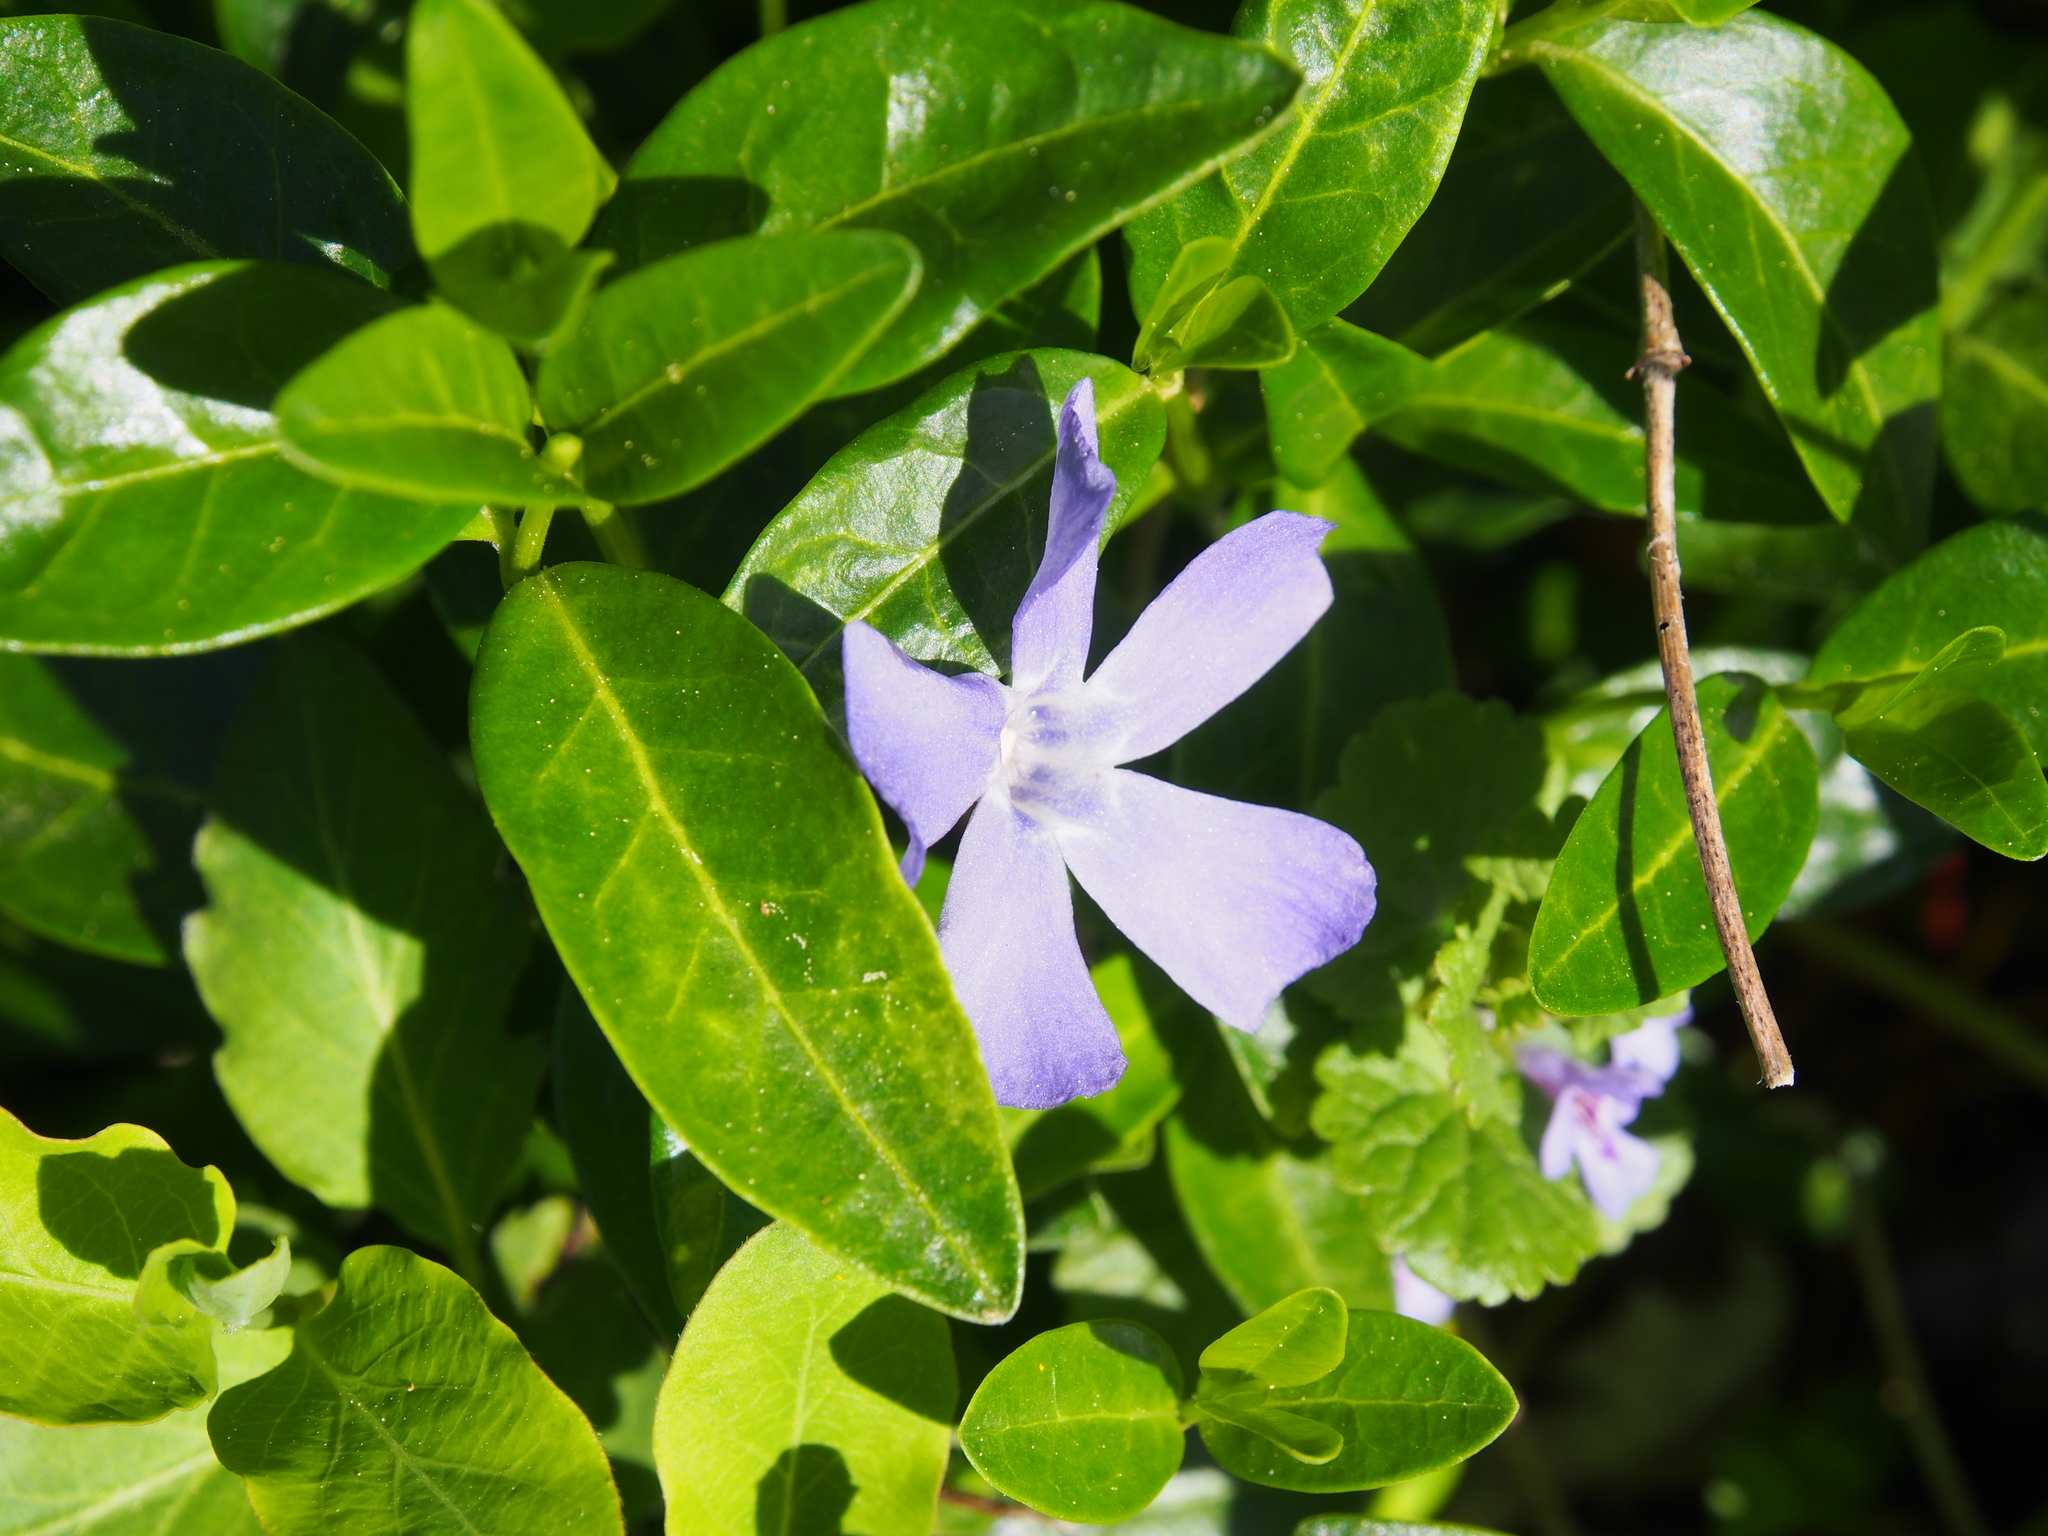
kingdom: Plantae
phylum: Tracheophyta
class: Magnoliopsida
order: Gentianales
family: Apocynaceae
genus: Vinca
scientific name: Vinca minor
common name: Lesser periwinkle
